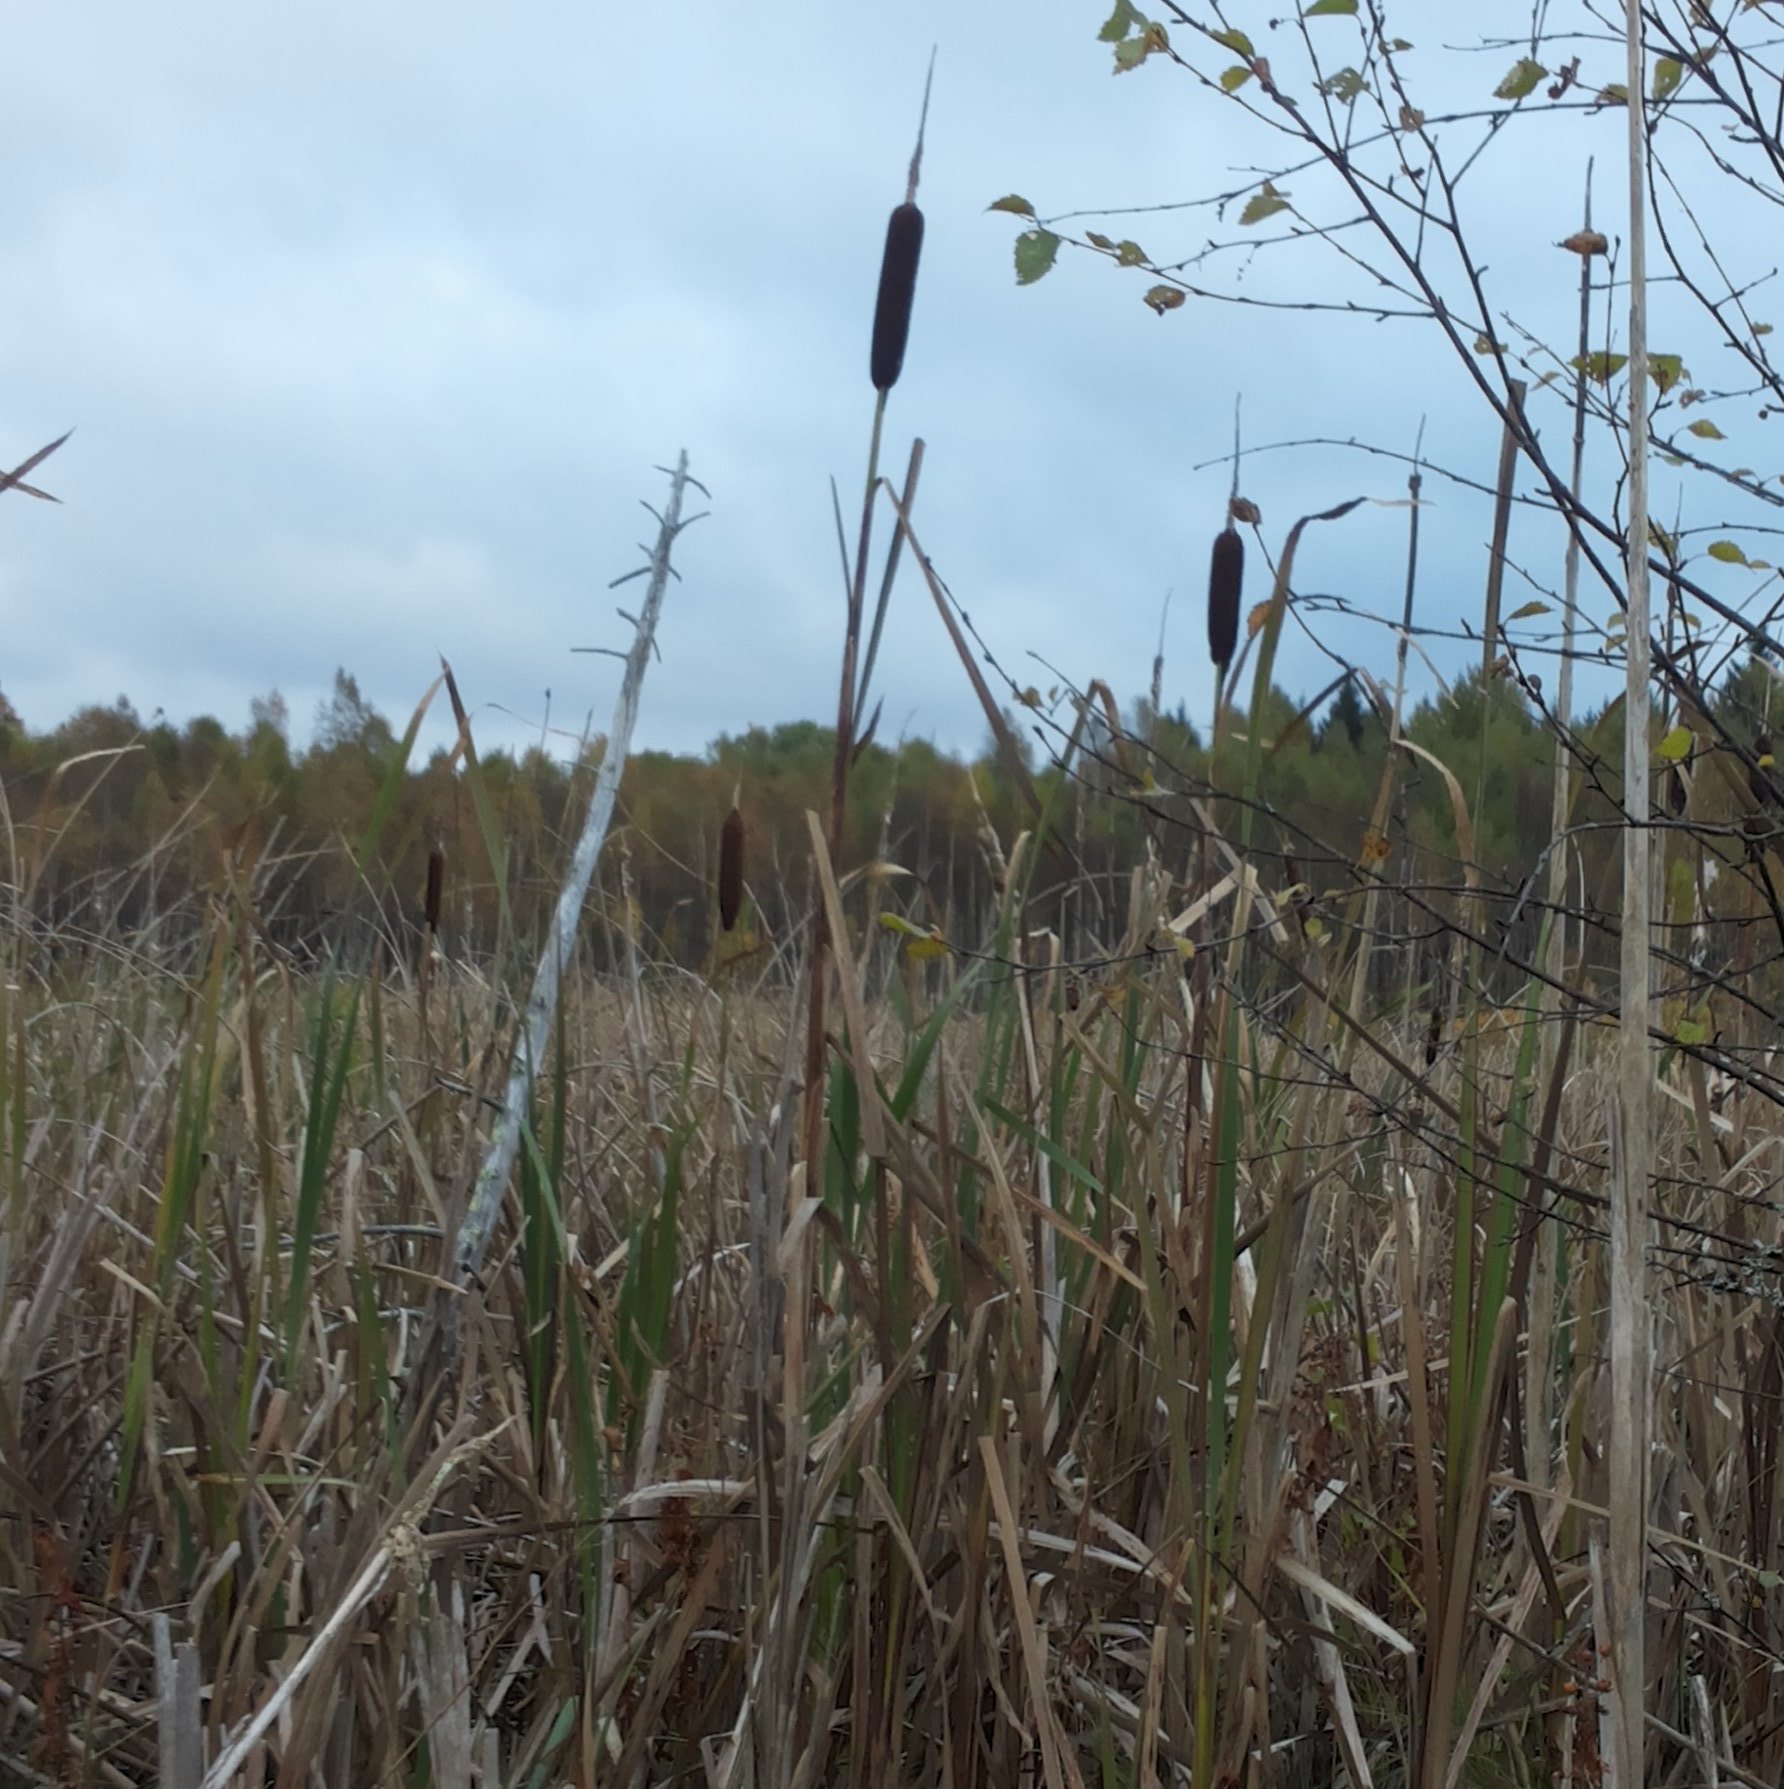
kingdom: Plantae
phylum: Tracheophyta
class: Liliopsida
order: Poales
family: Typhaceae
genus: Typha
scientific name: Typha latifolia
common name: Broadleaf cattail
